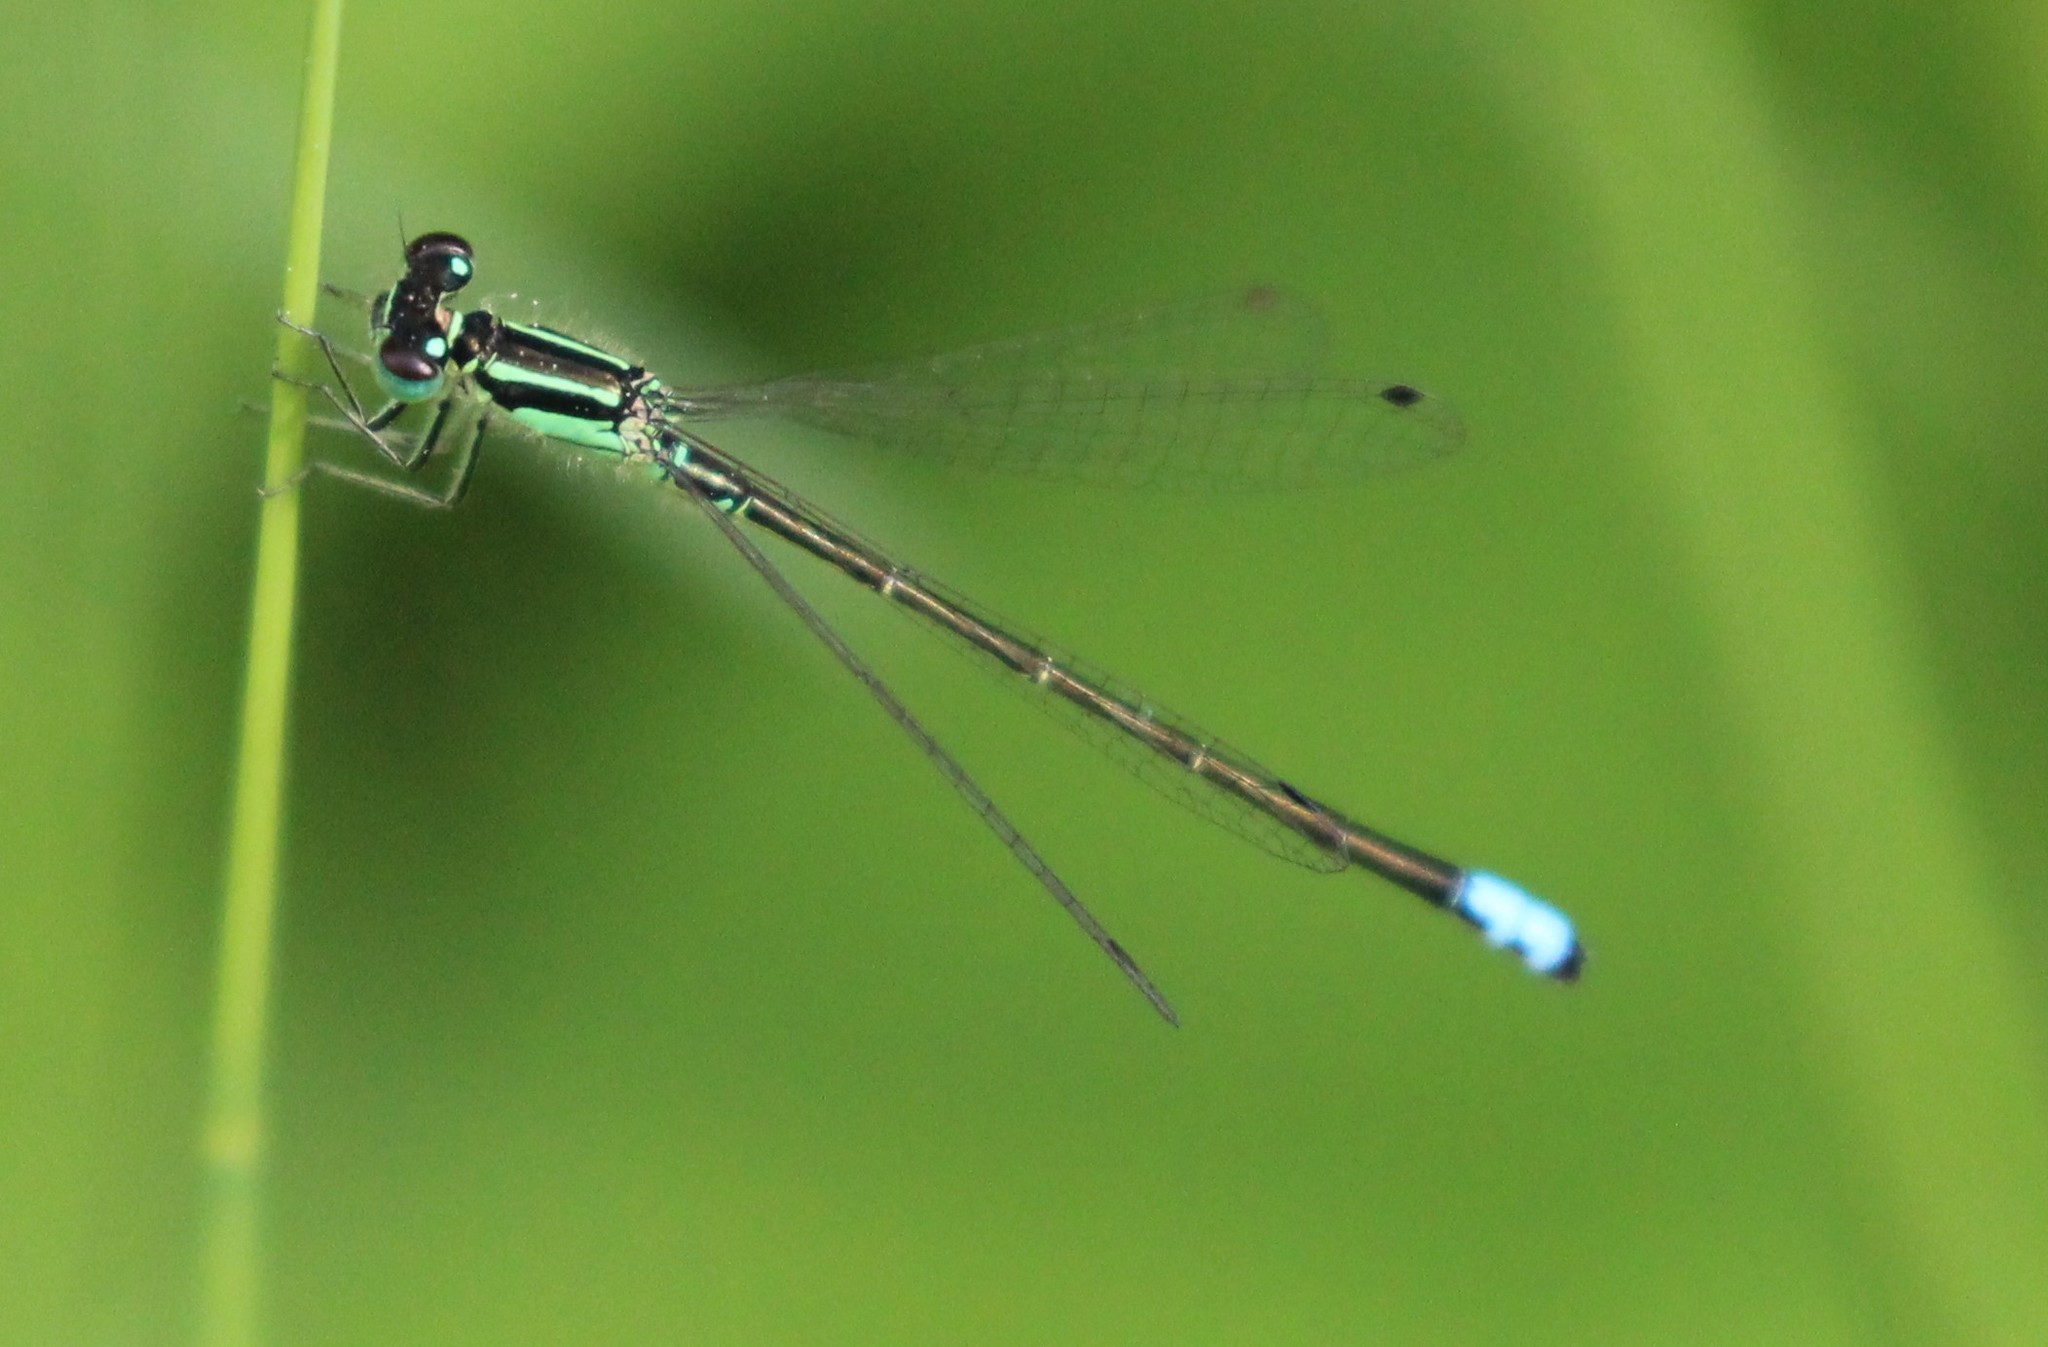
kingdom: Animalia
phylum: Arthropoda
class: Insecta
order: Odonata
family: Coenagrionidae
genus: Ischnura
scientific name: Ischnura verticalis
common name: Eastern forktail
